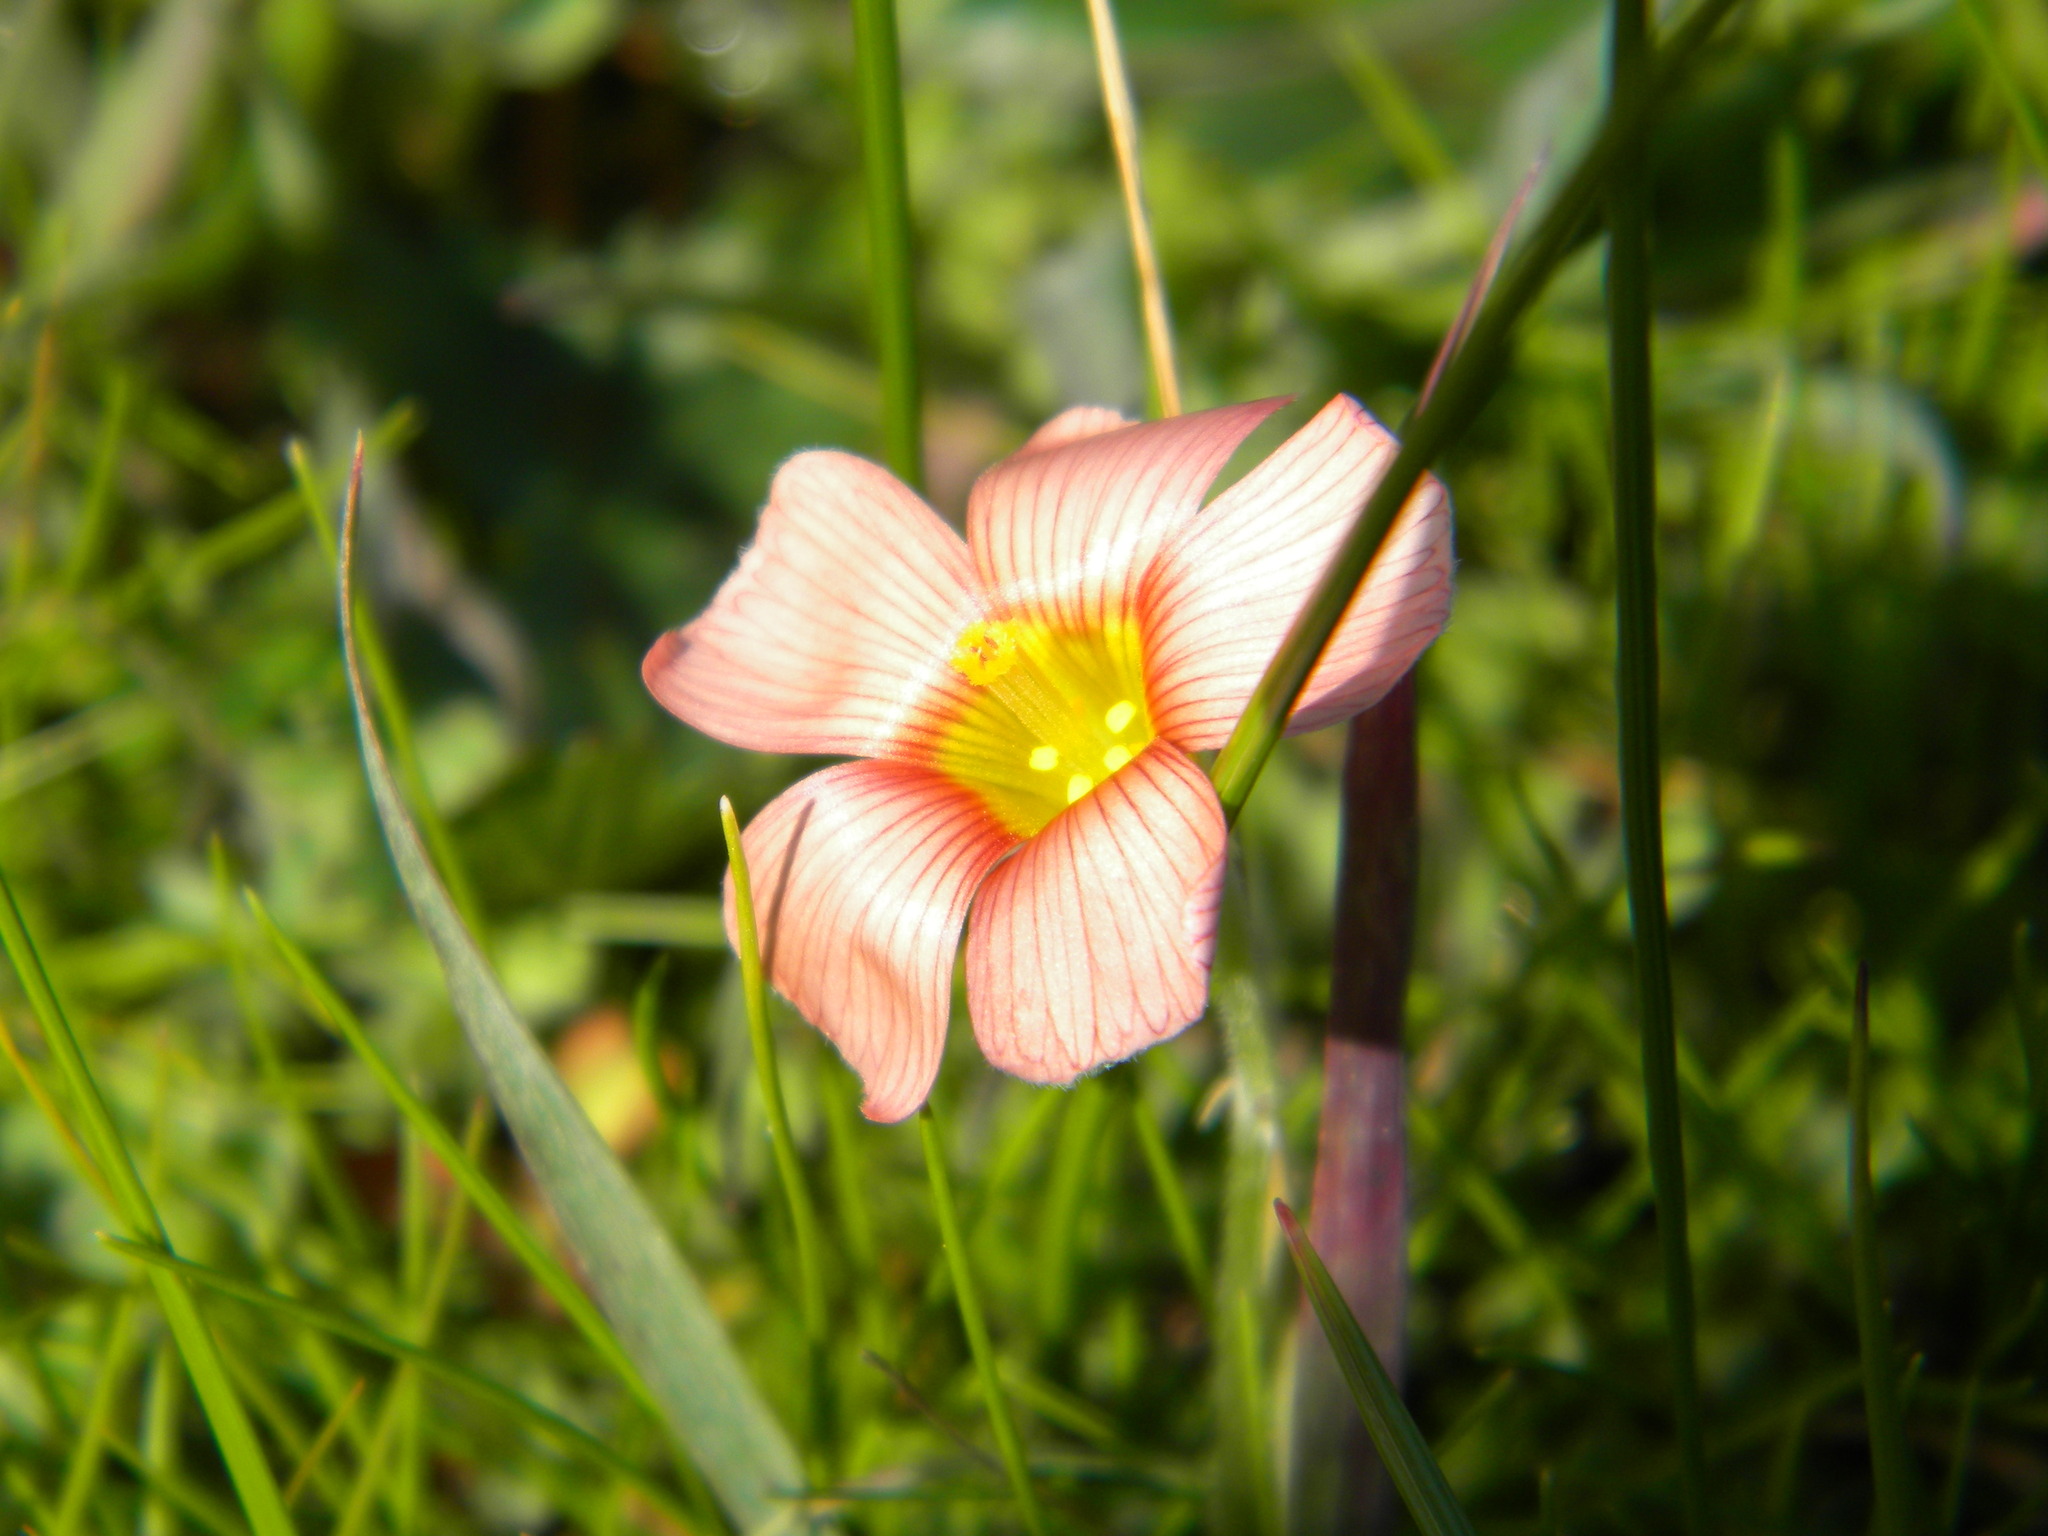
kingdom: Plantae
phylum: Tracheophyta
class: Magnoliopsida
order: Oxalidales
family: Oxalidaceae
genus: Oxalis
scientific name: Oxalis obtusa
